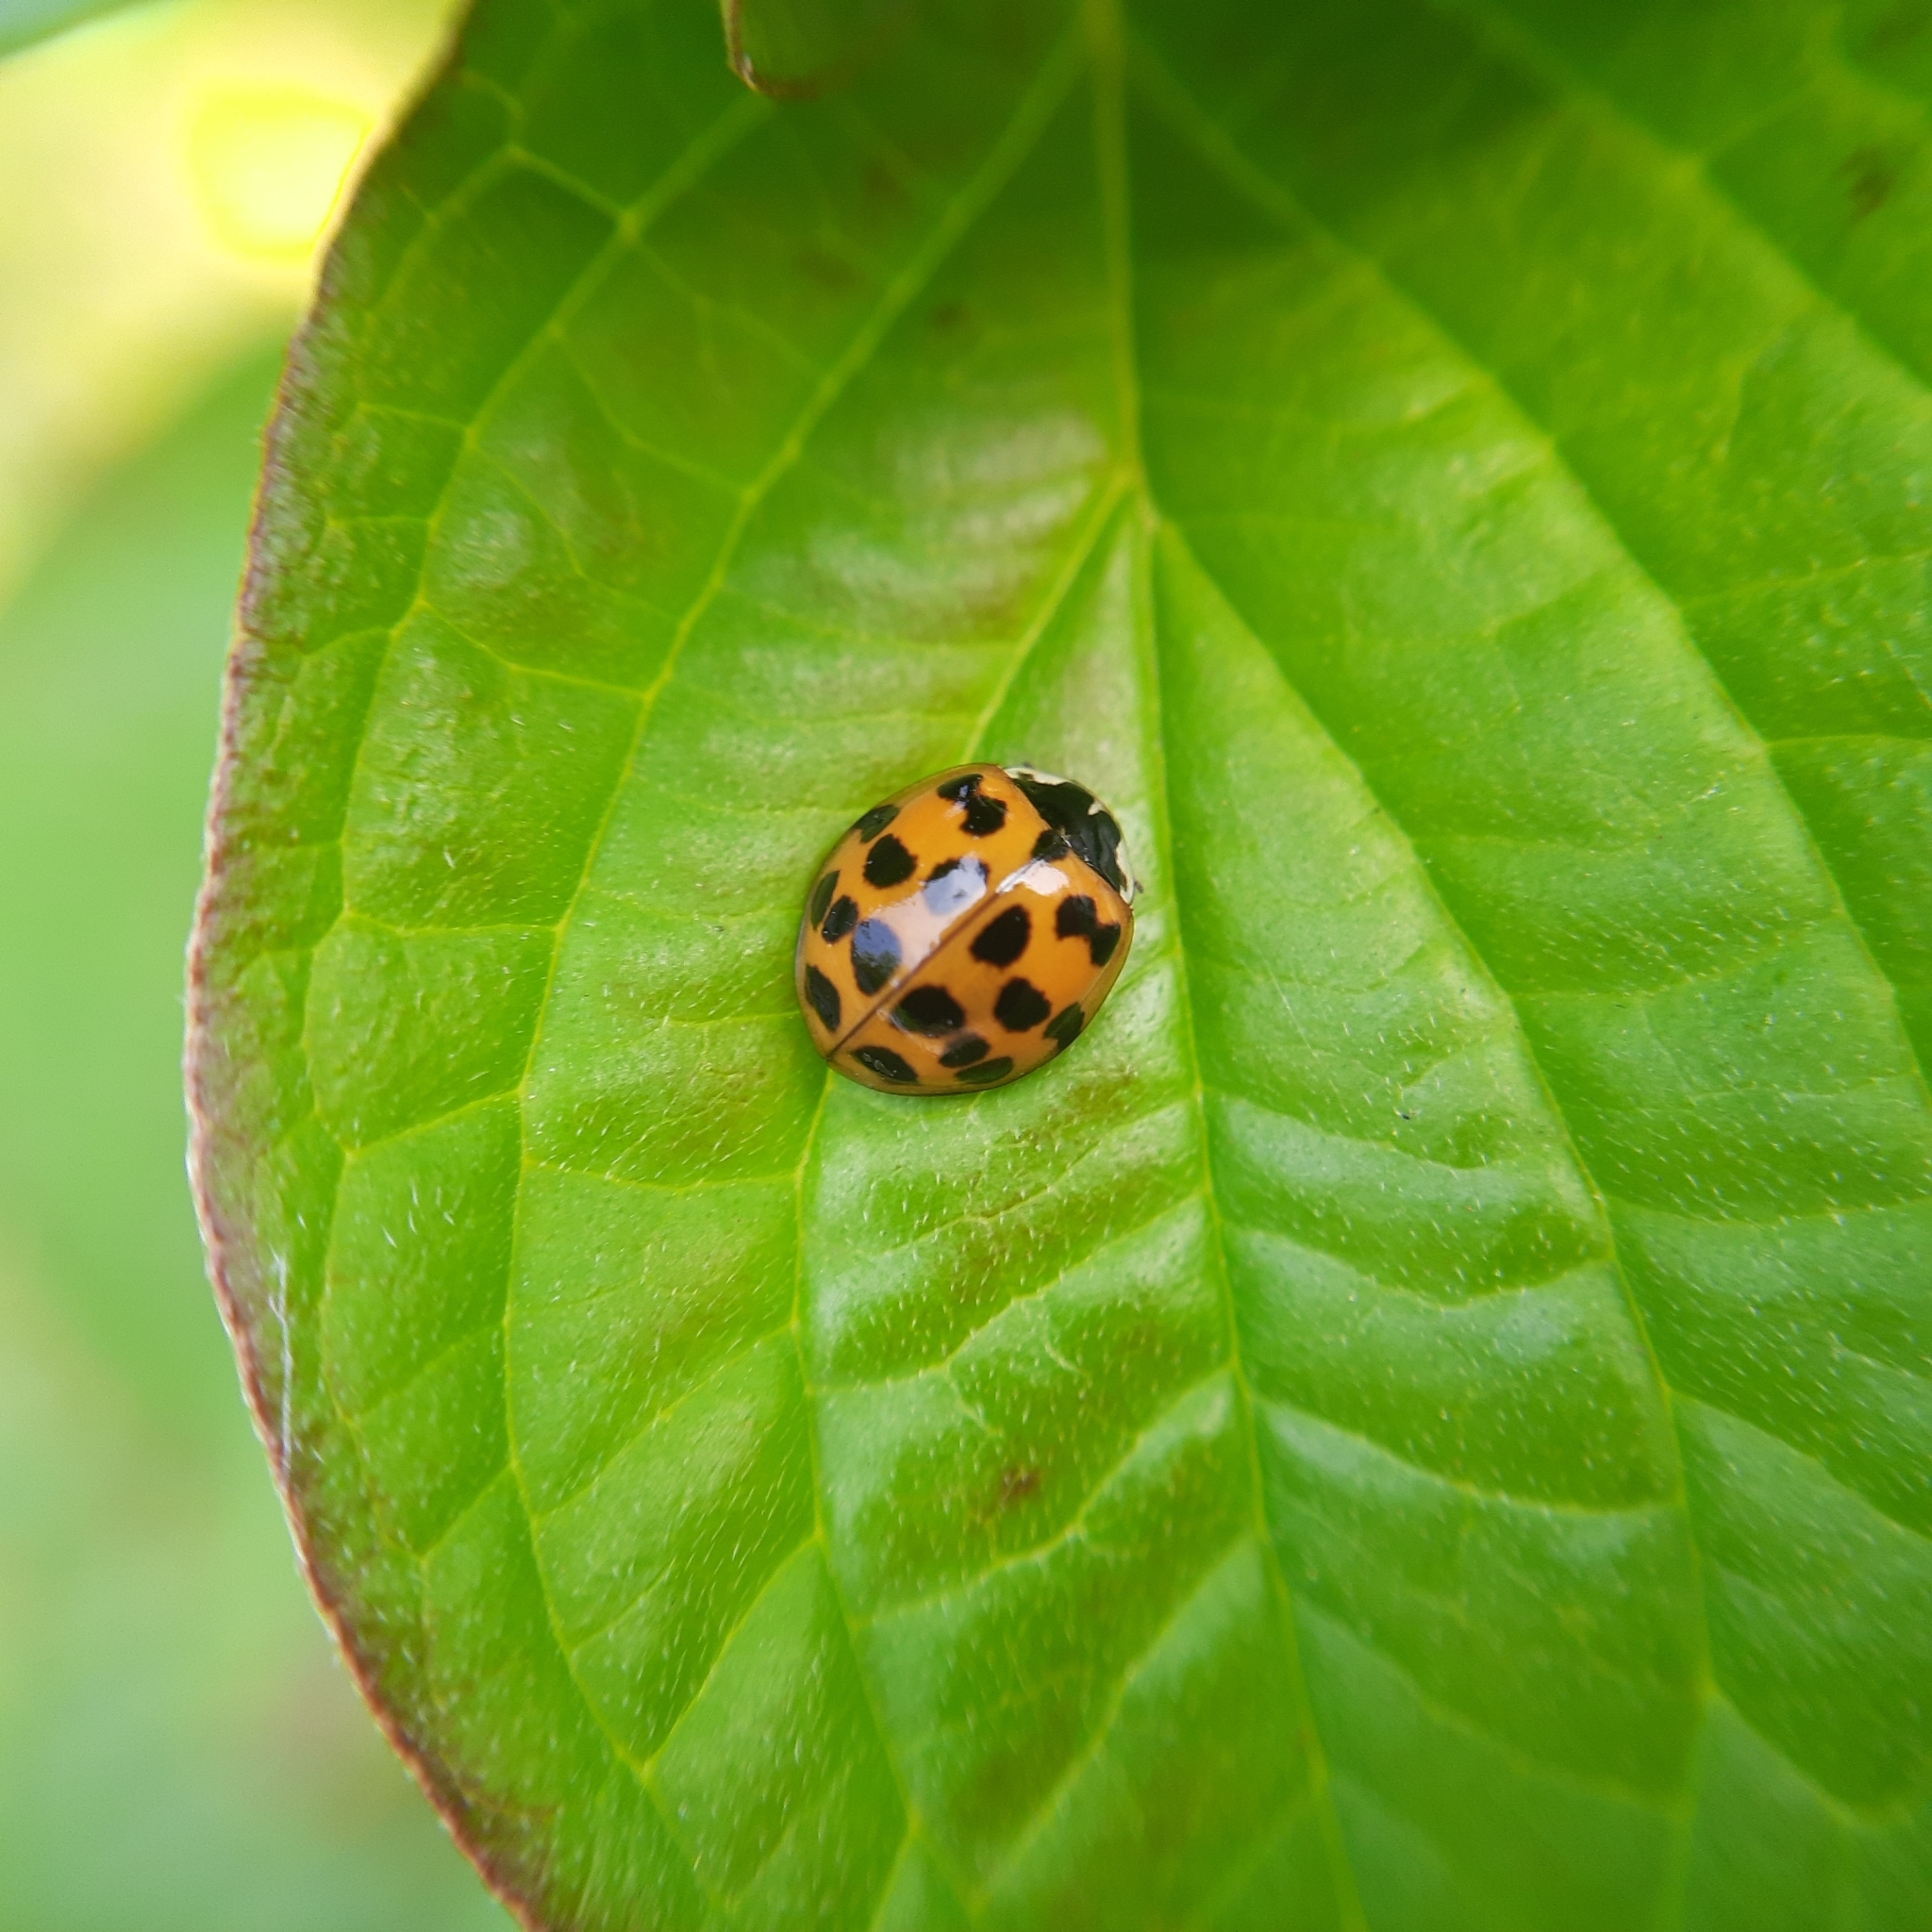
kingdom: Animalia
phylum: Arthropoda
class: Insecta
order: Coleoptera
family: Coccinellidae
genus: Harmonia
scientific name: Harmonia axyridis
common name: Harlequin ladybird
